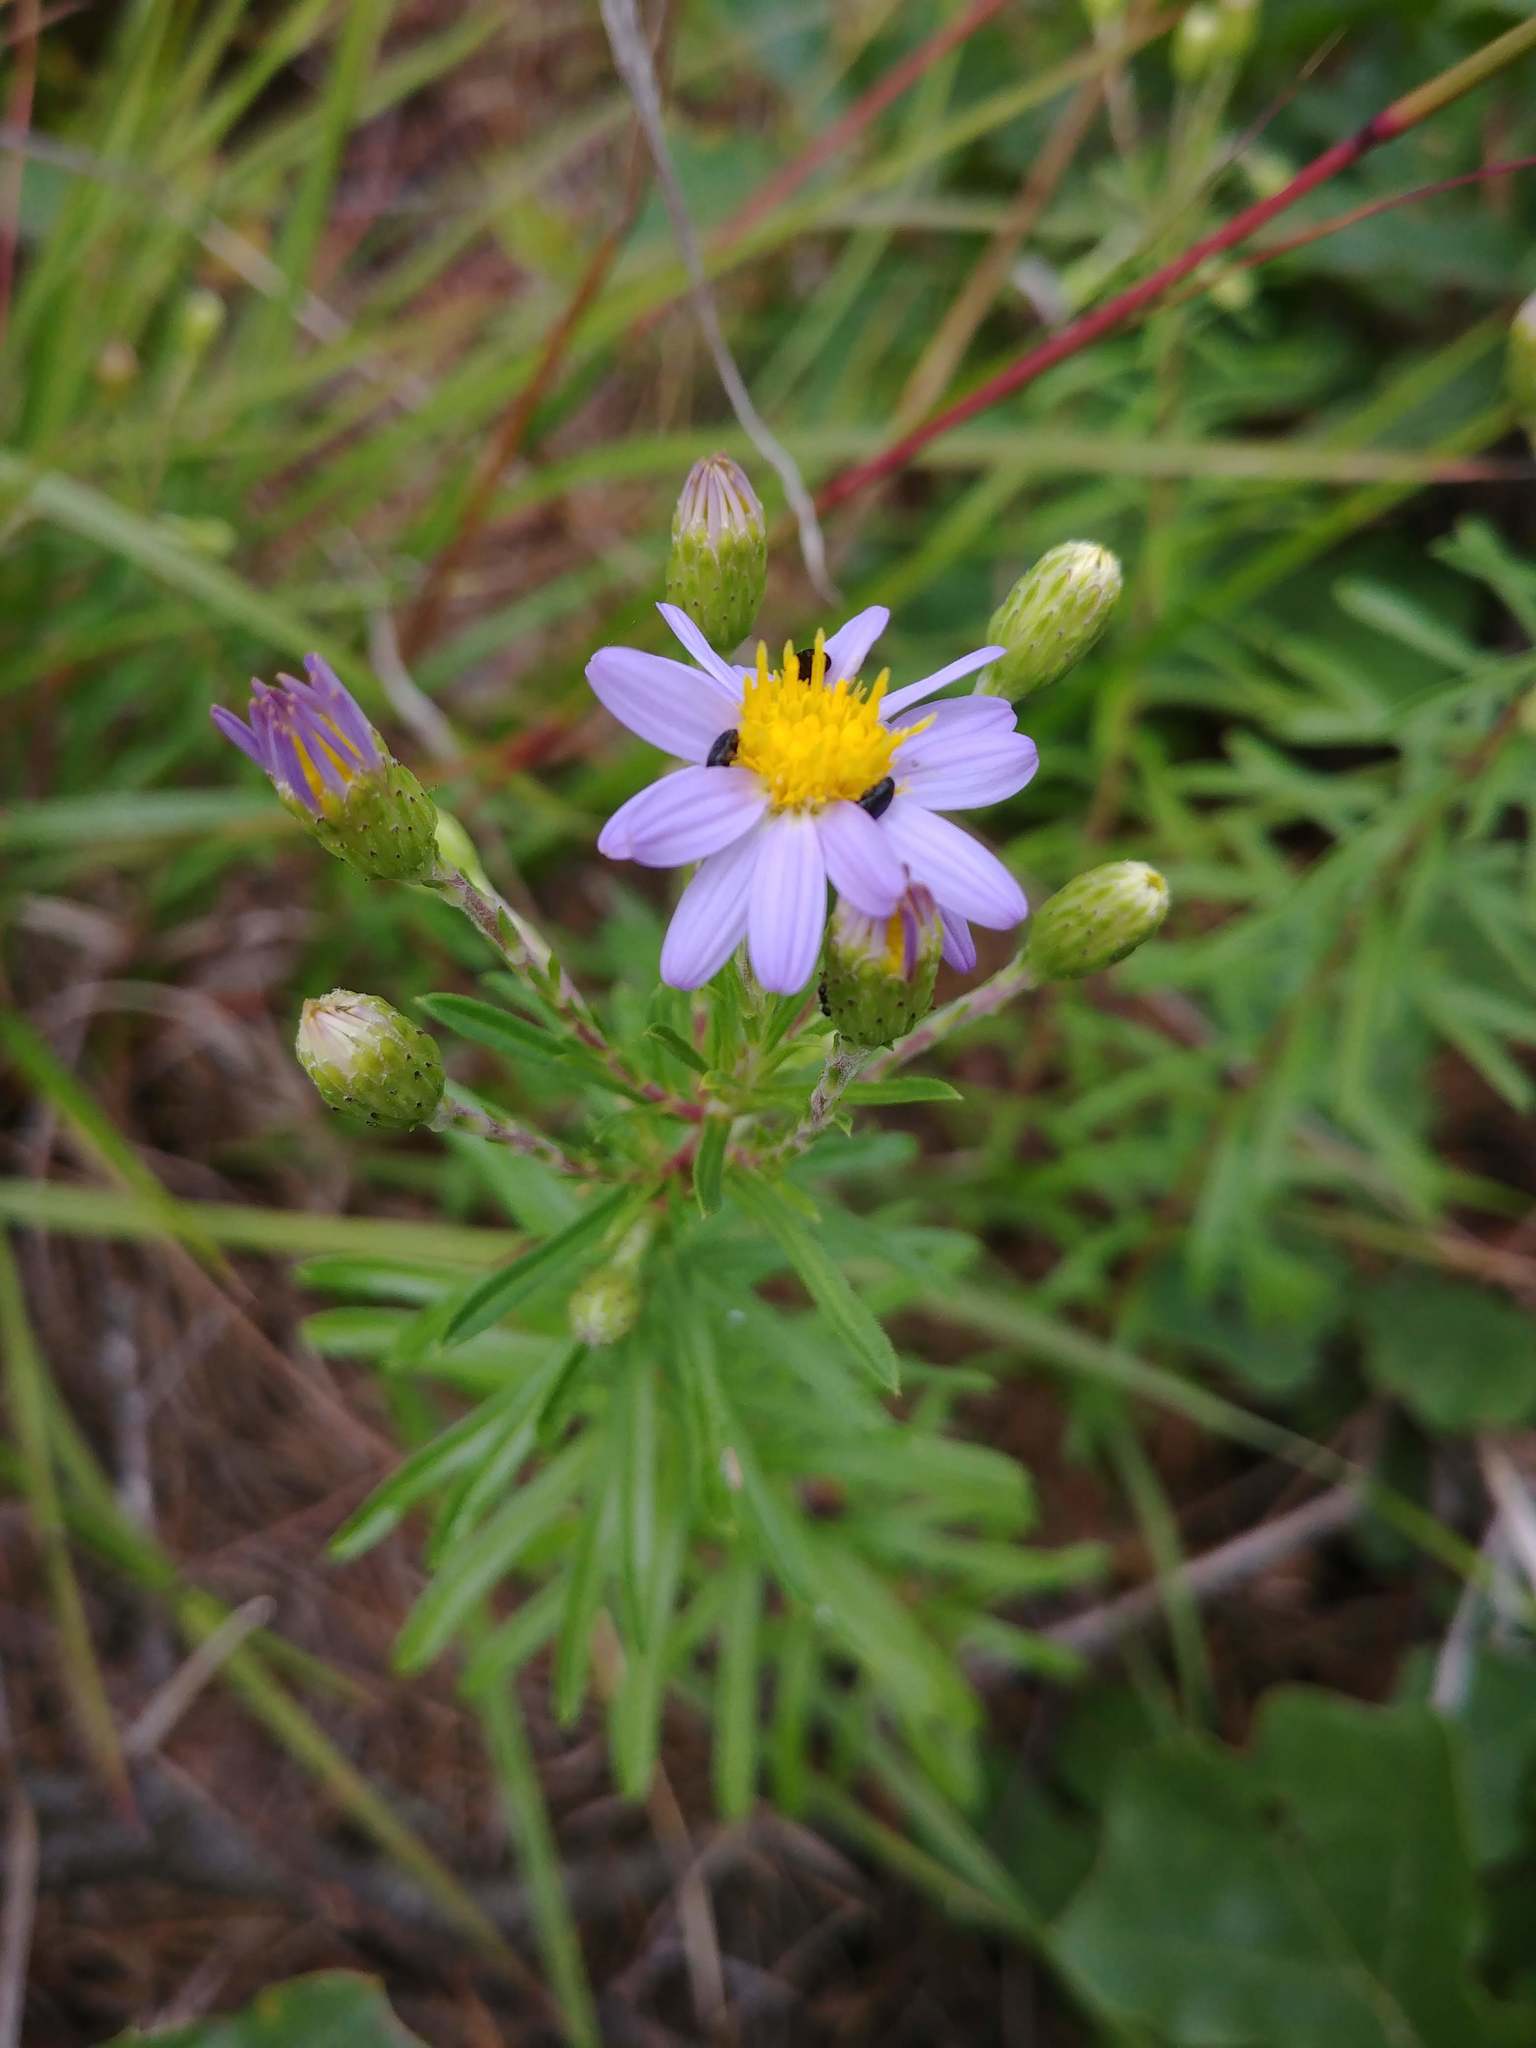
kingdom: Plantae
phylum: Tracheophyta
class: Magnoliopsida
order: Asterales
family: Asteraceae
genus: Ionactis
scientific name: Ionactis linariifolia
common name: Flax-leaf aster
